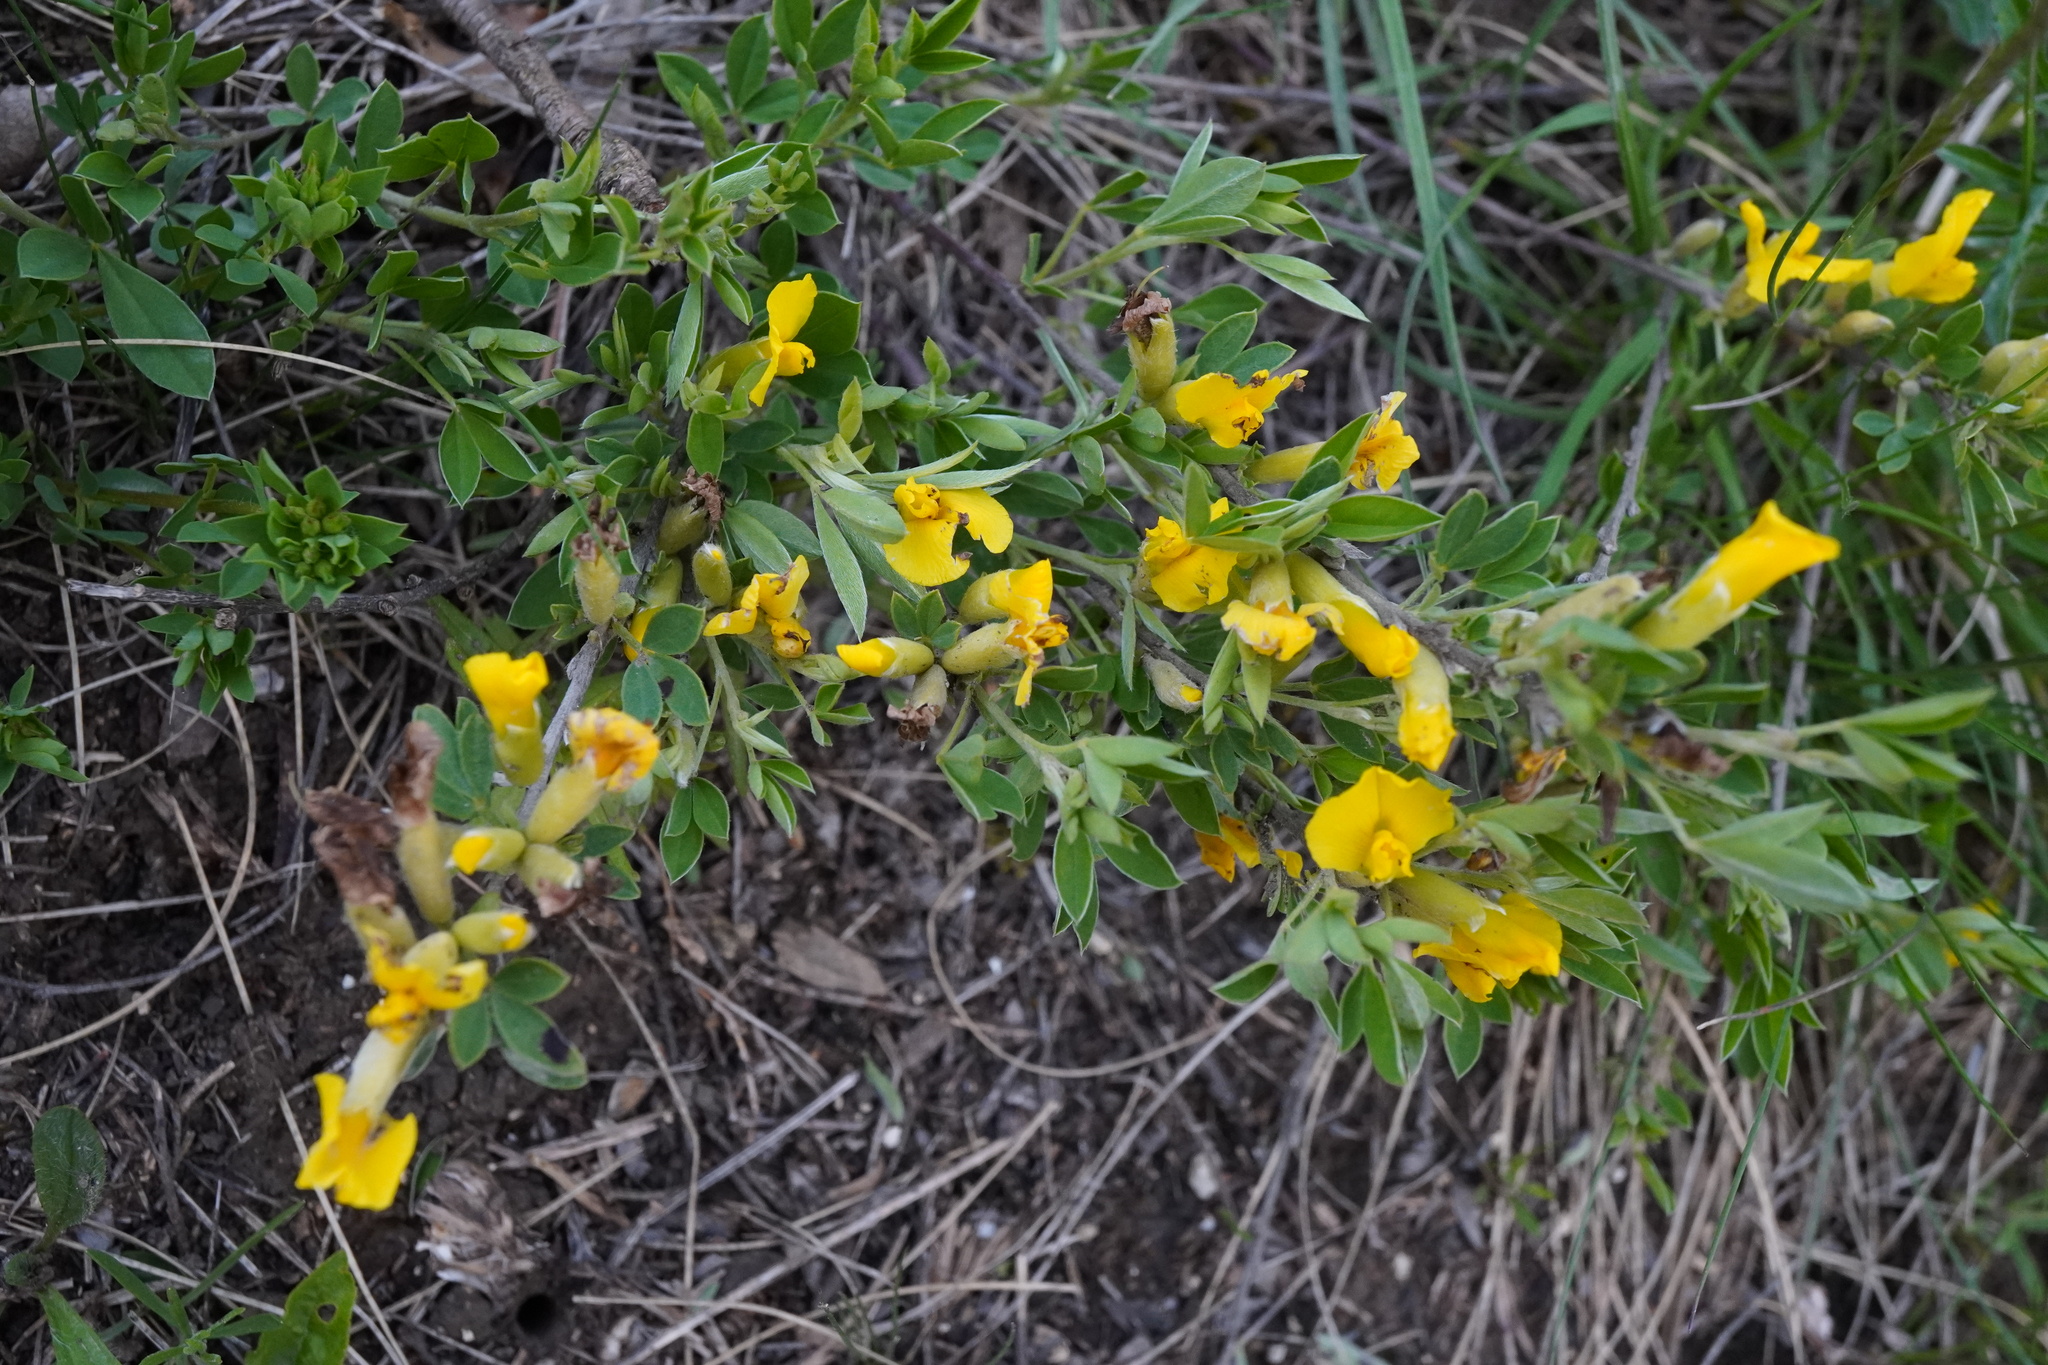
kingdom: Plantae
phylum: Tracheophyta
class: Magnoliopsida
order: Fabales
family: Fabaceae
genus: Chamaecytisus
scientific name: Chamaecytisus ratisbonensis
